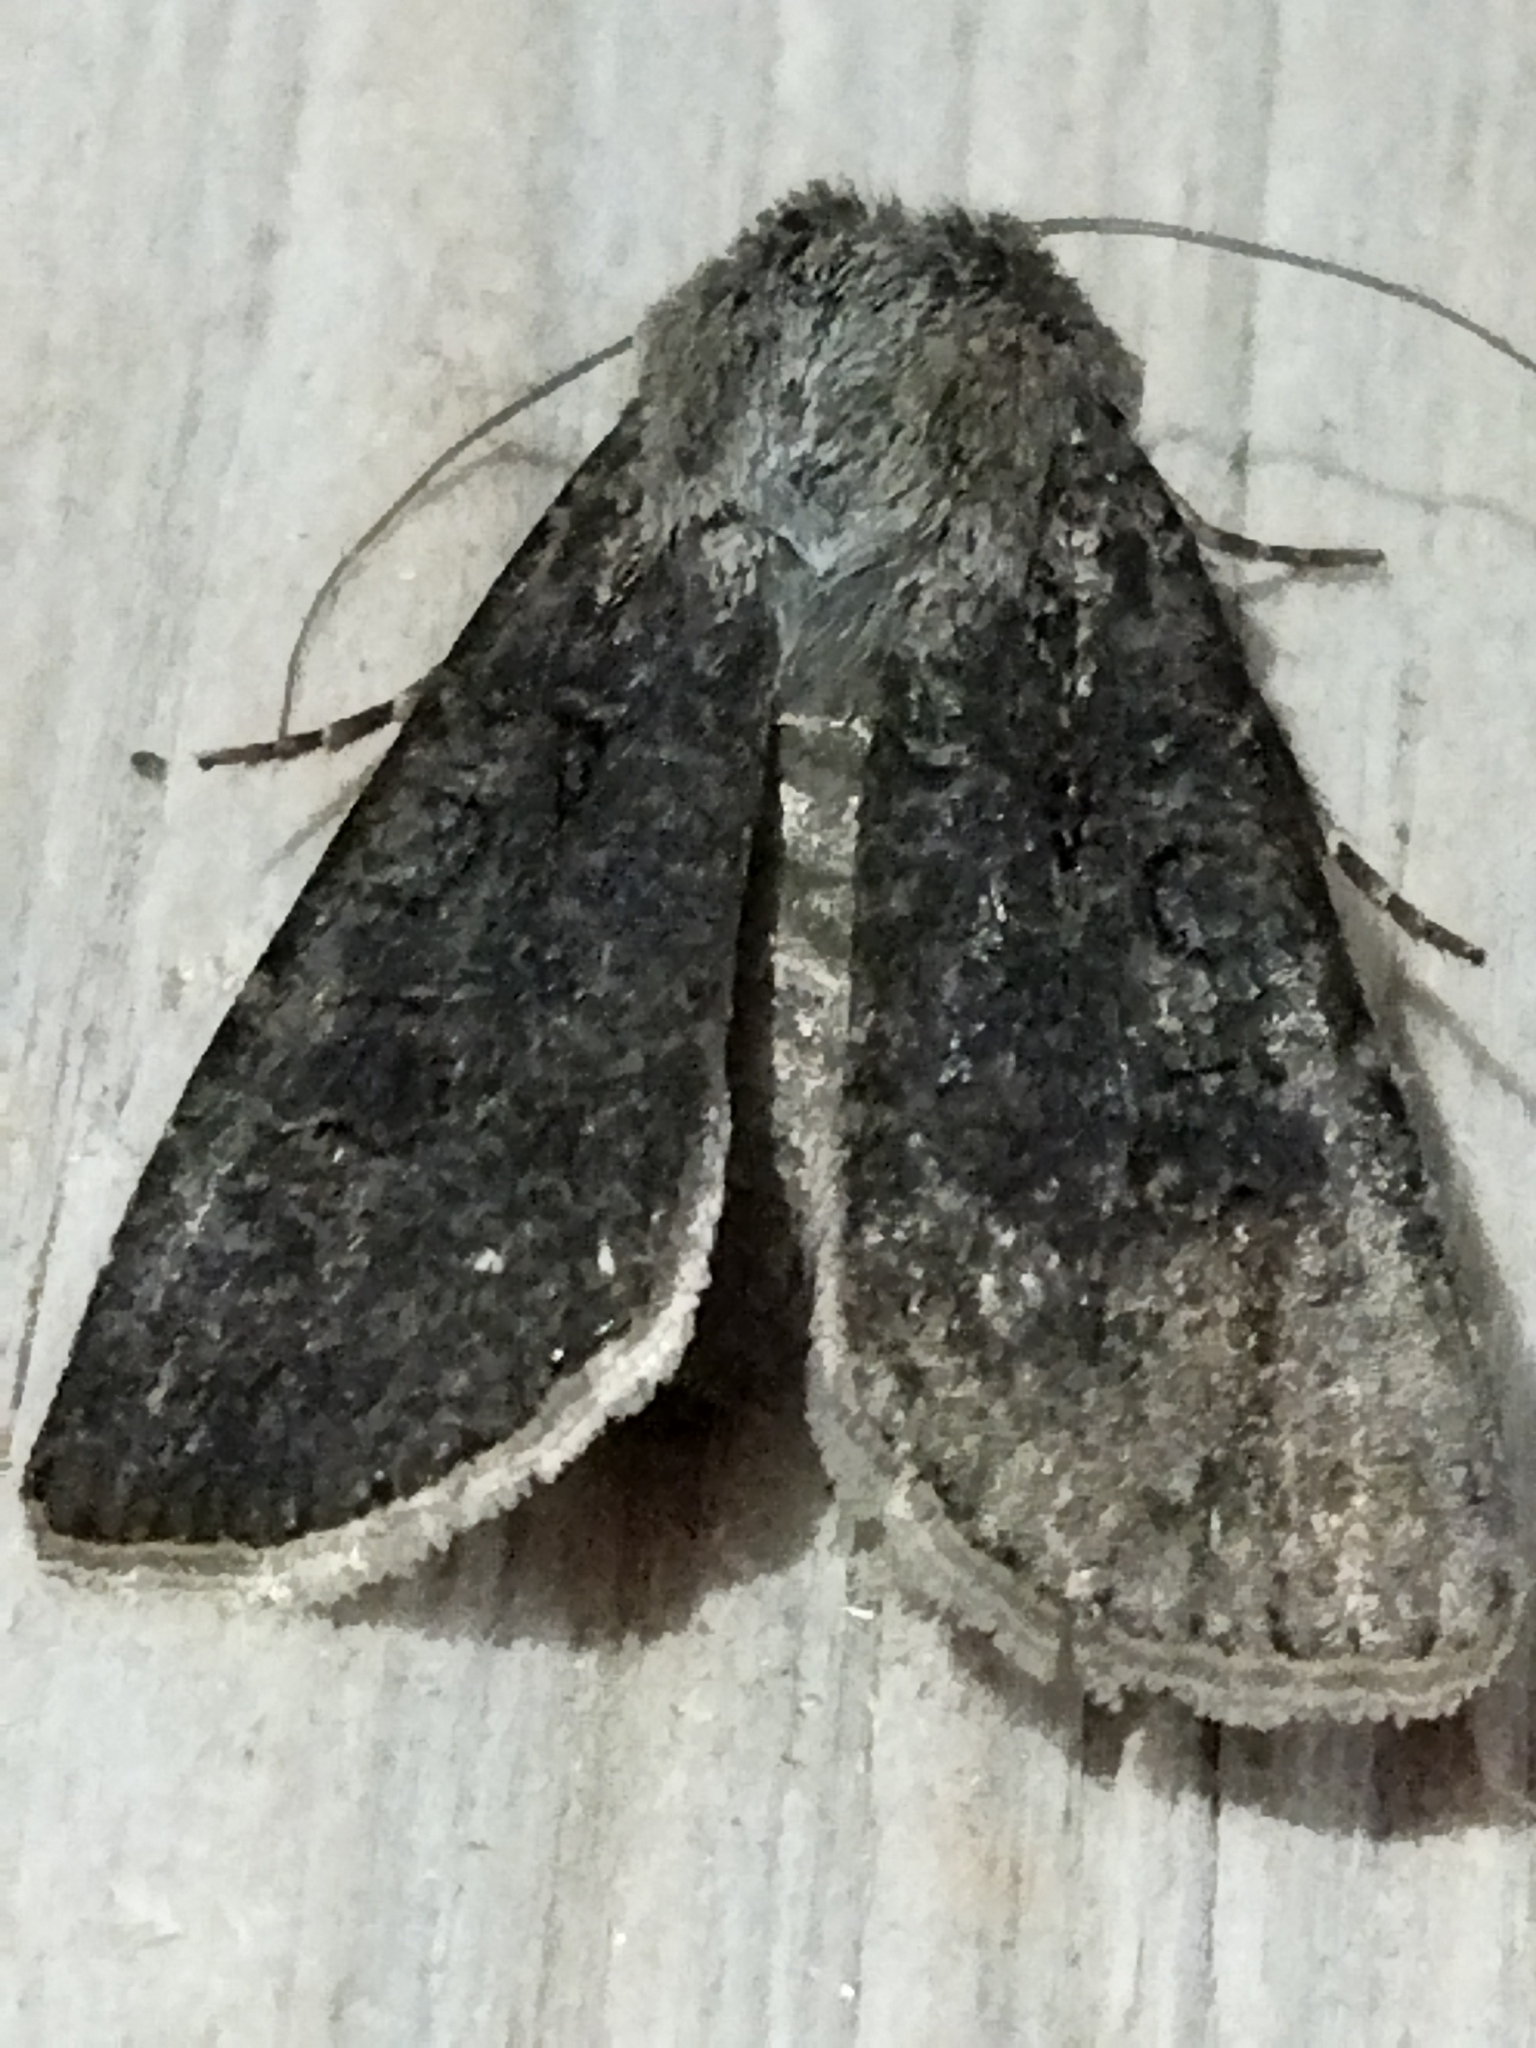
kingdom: Animalia
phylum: Arthropoda
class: Insecta
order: Lepidoptera
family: Noctuidae
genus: Agrotis
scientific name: Agrotis segetum
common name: Turnip moth
